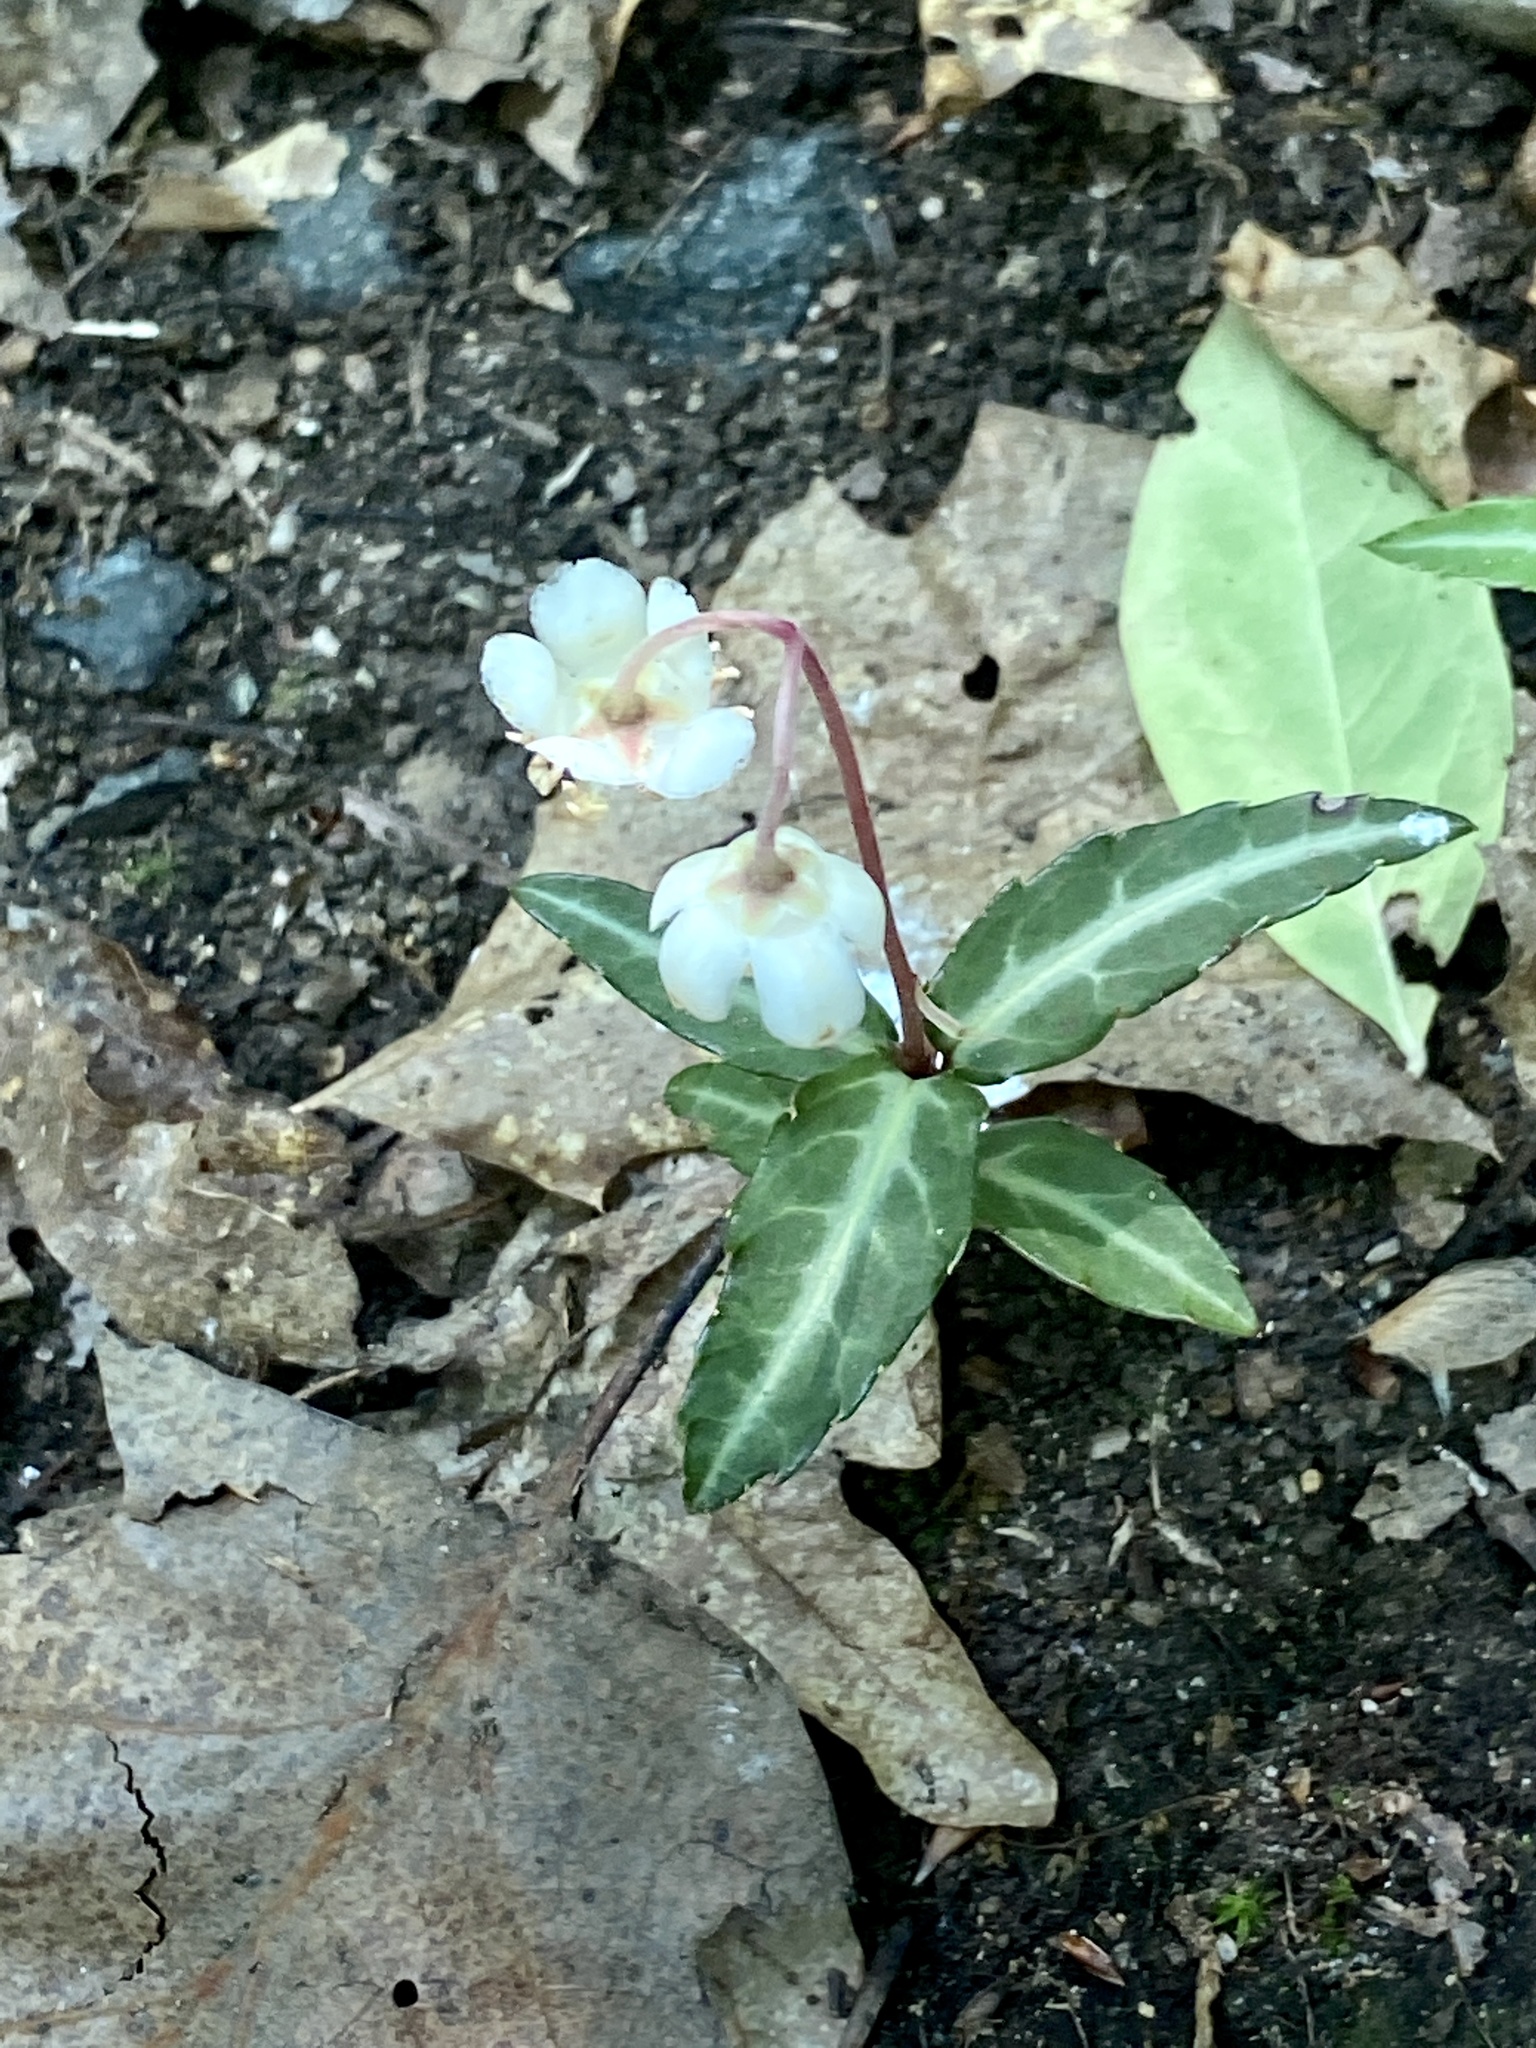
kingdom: Plantae
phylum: Tracheophyta
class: Magnoliopsida
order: Ericales
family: Ericaceae
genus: Chimaphila
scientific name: Chimaphila maculata
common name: Spotted pipsissewa
